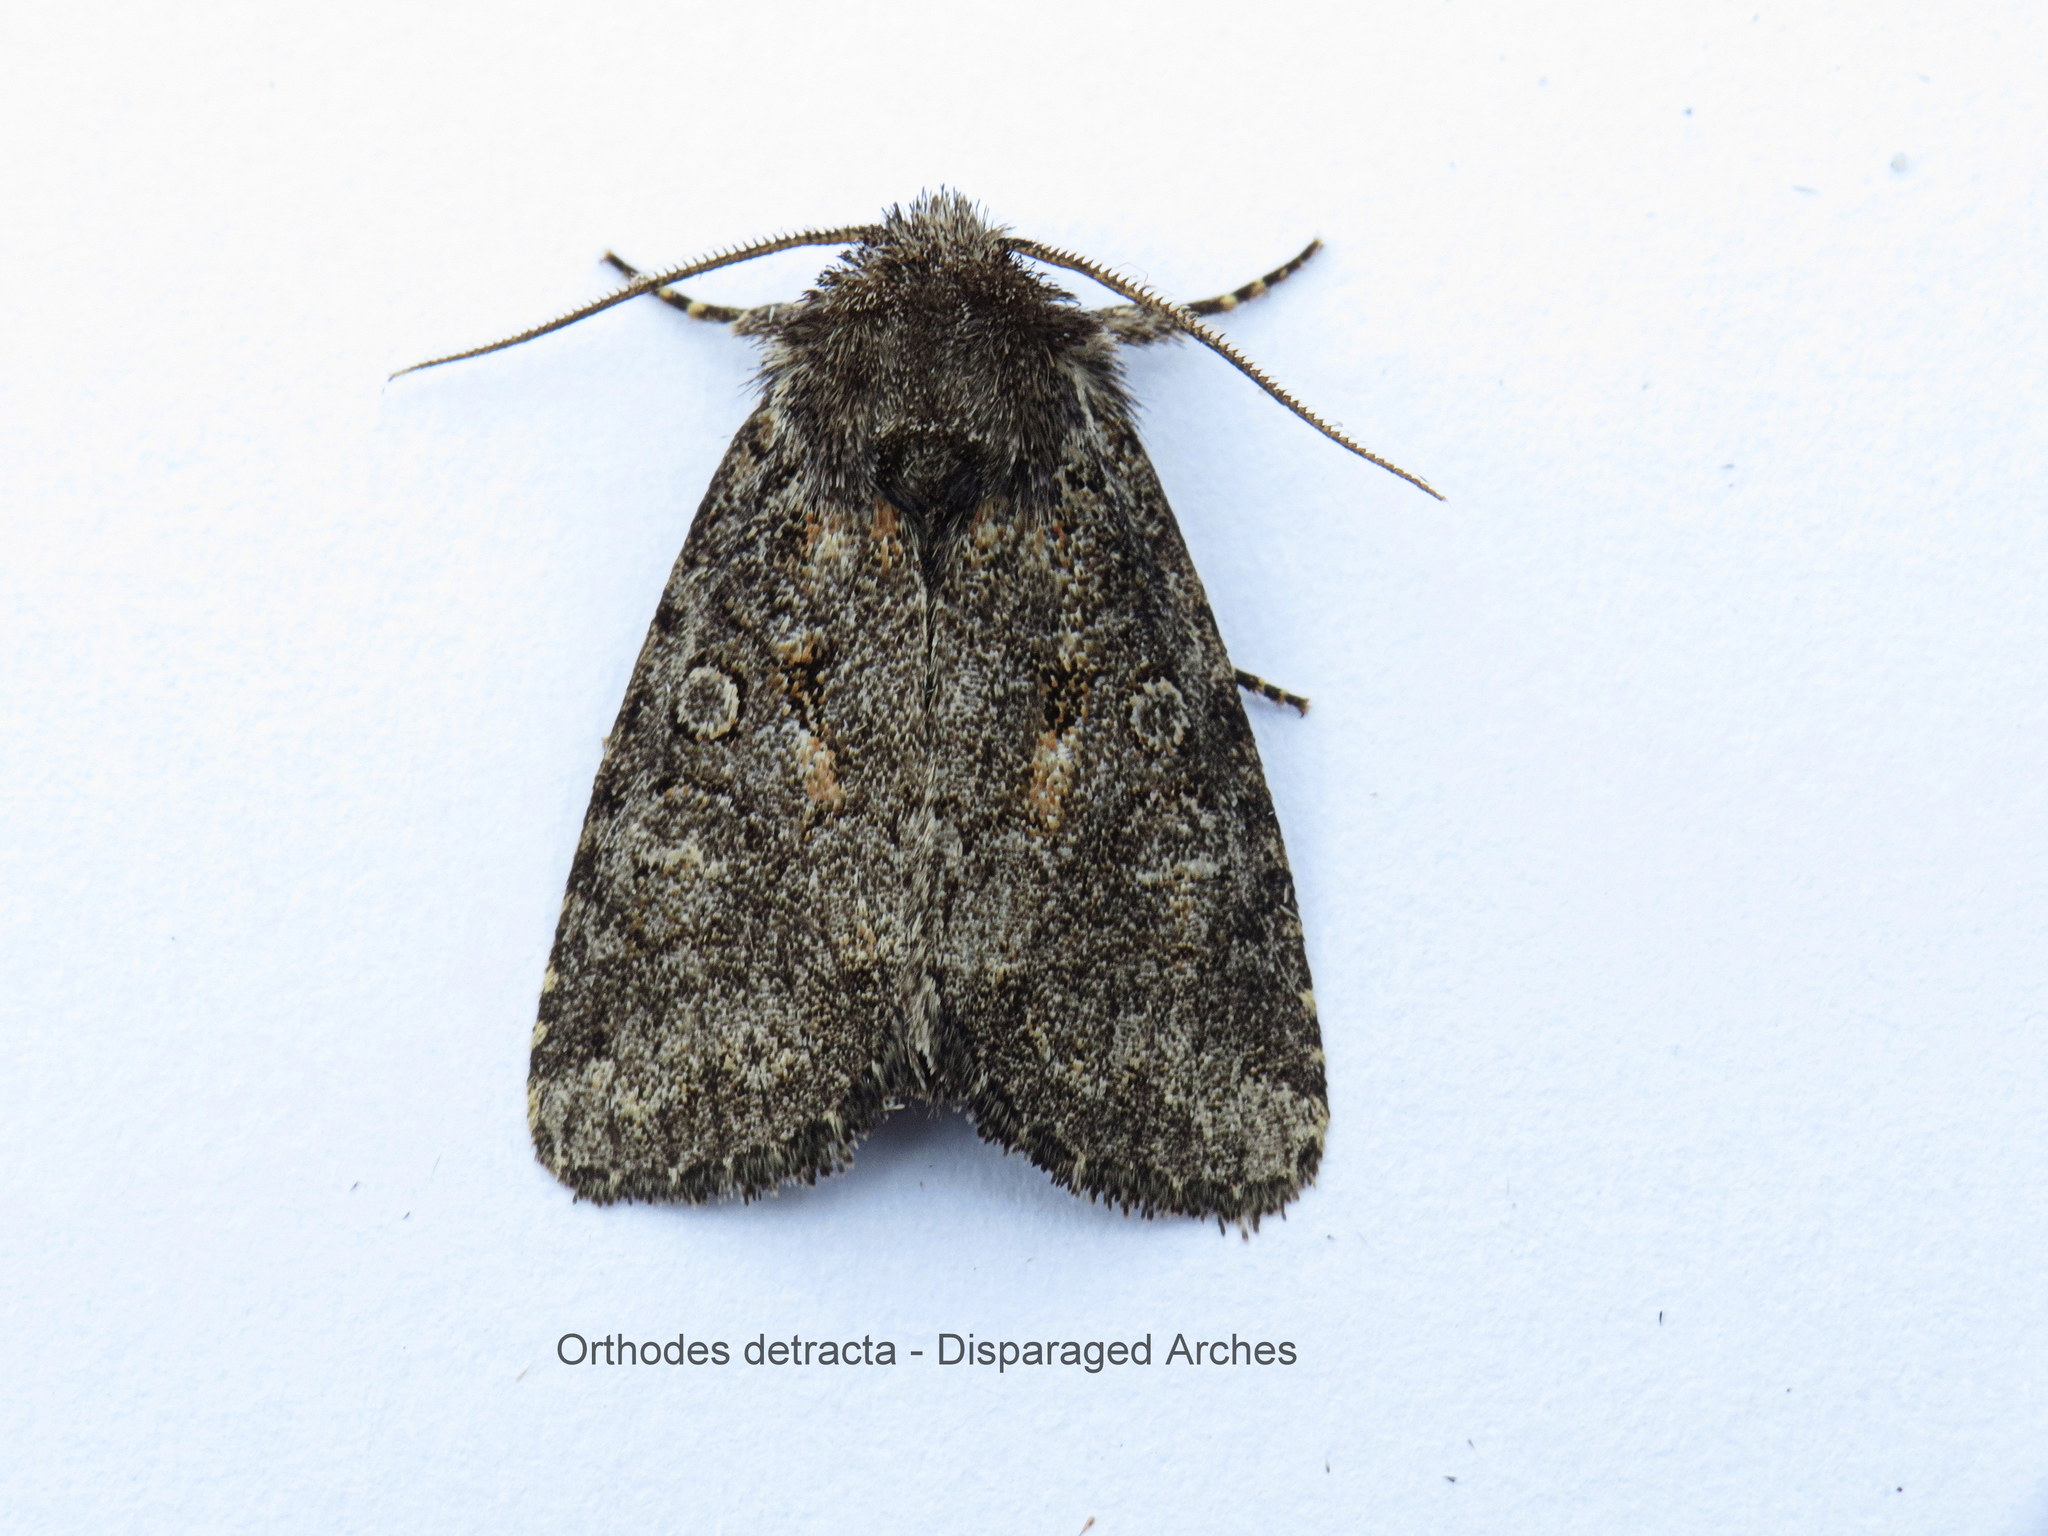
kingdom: Animalia
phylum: Arthropoda
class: Insecta
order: Lepidoptera
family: Noctuidae
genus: Orthodes
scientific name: Orthodes detracta
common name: Disparaged arches moth
